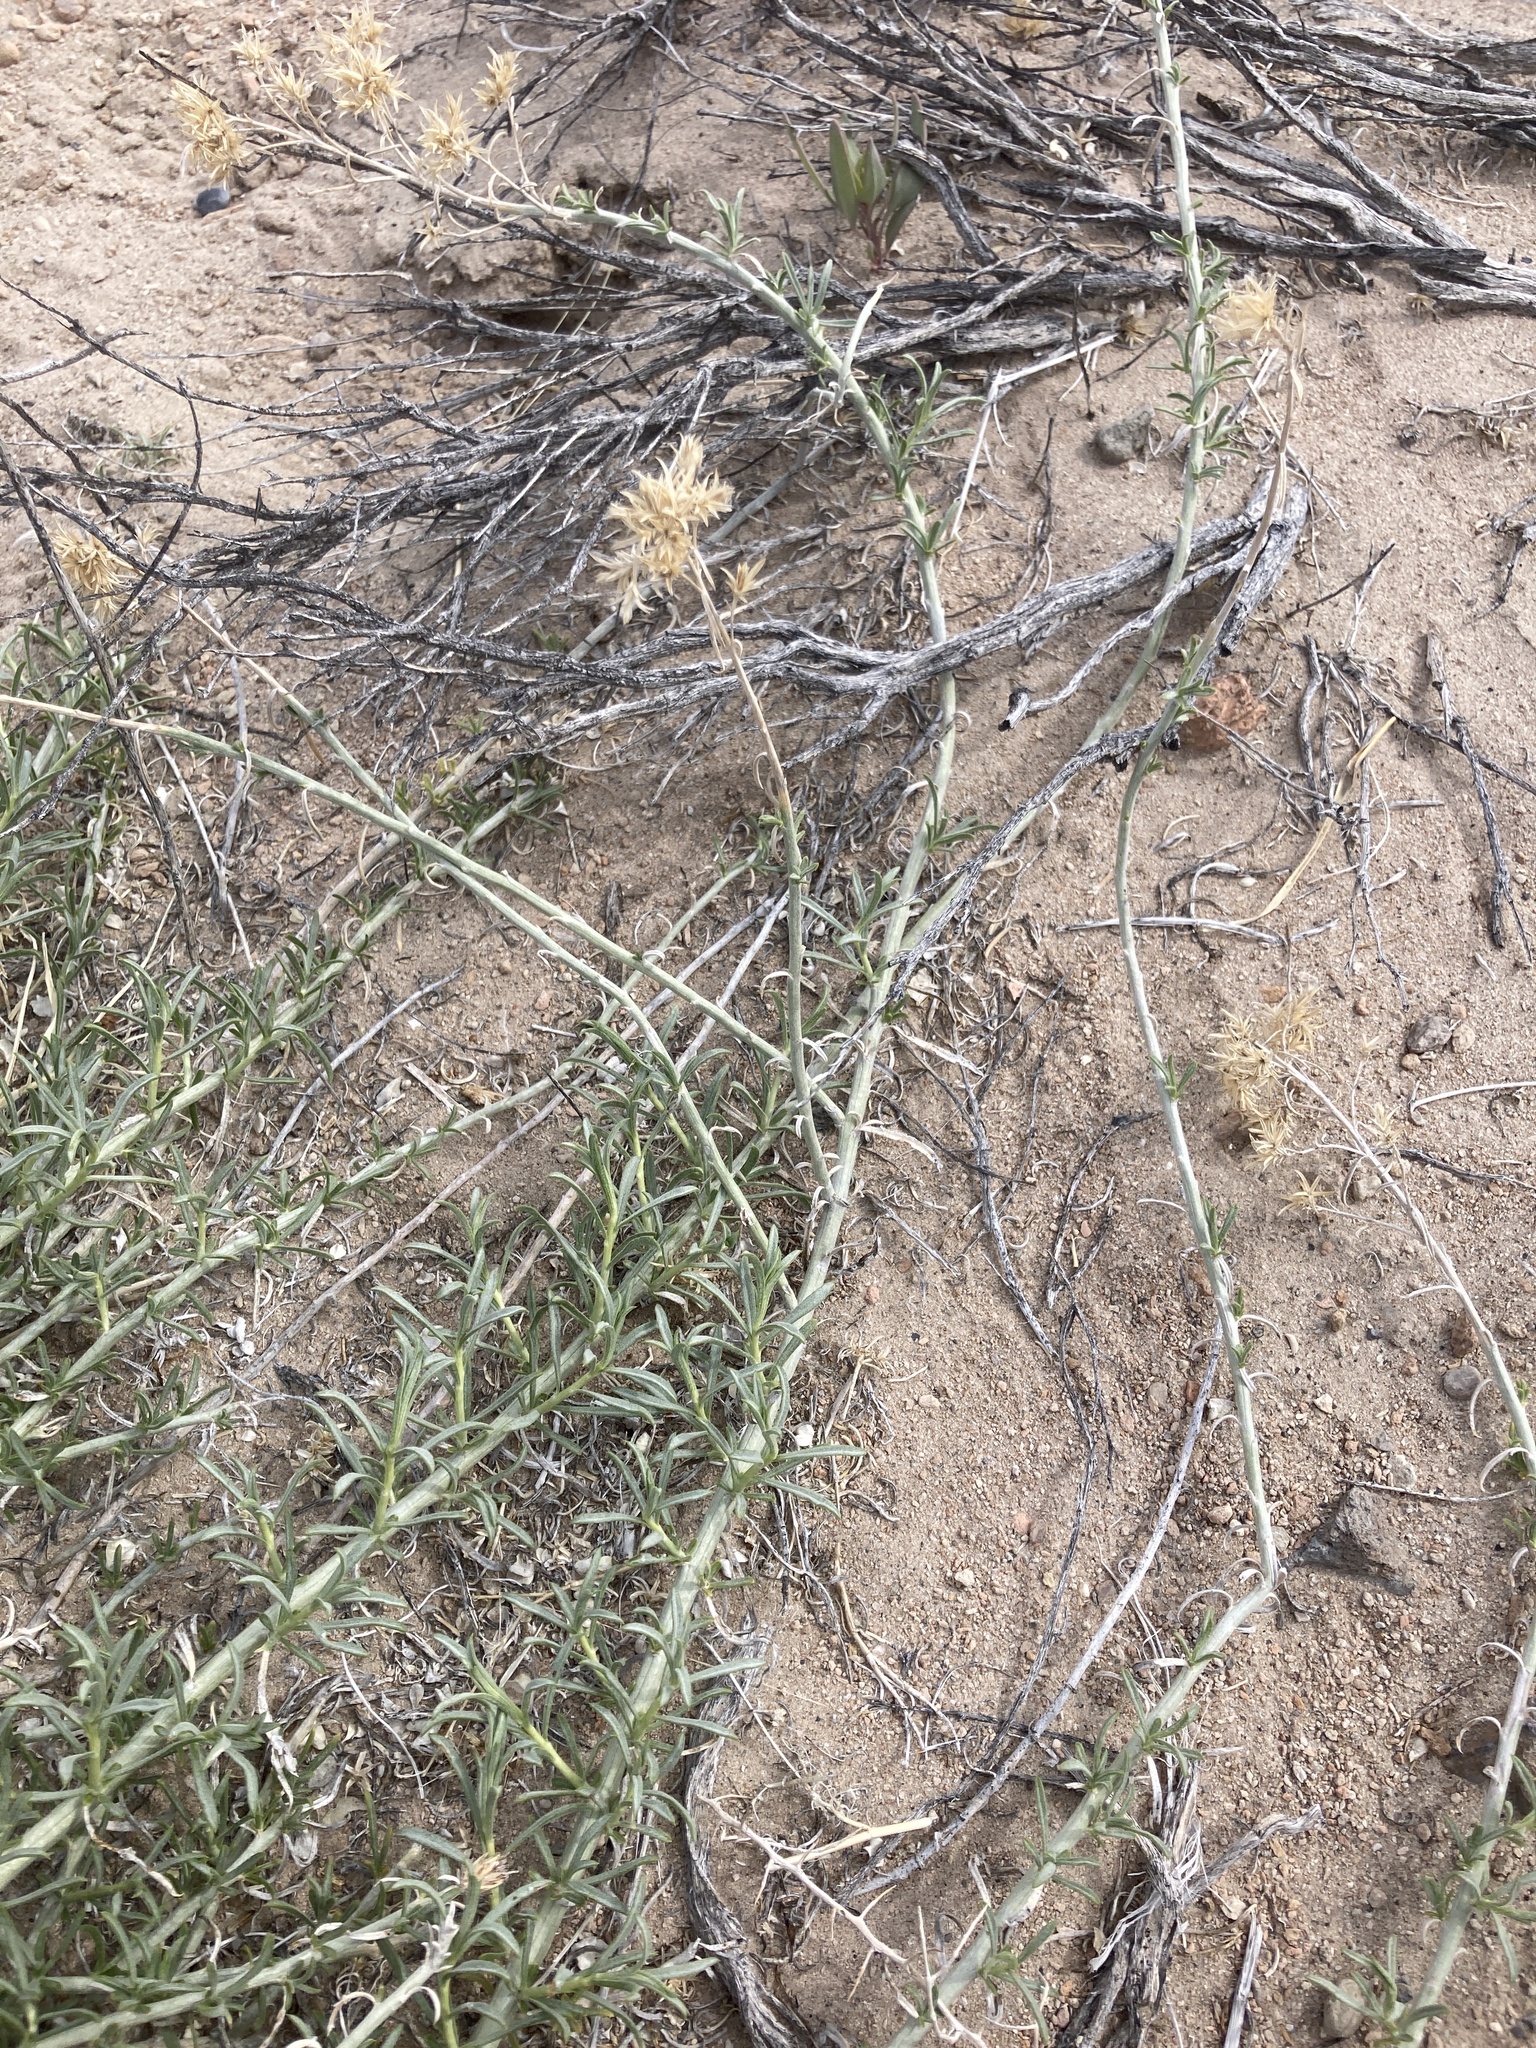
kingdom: Plantae
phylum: Tracheophyta
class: Magnoliopsida
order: Asterales
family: Asteraceae
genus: Ericameria
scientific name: Ericameria nauseosa
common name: Rubber rabbitbrush
